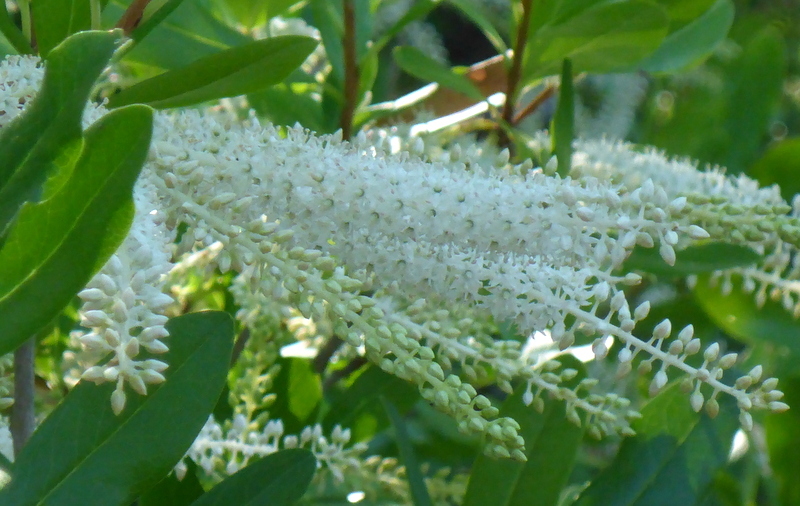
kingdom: Plantae
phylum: Tracheophyta
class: Magnoliopsida
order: Ericales
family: Cyrillaceae
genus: Cyrilla
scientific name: Cyrilla racemiflora
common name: Black titi
